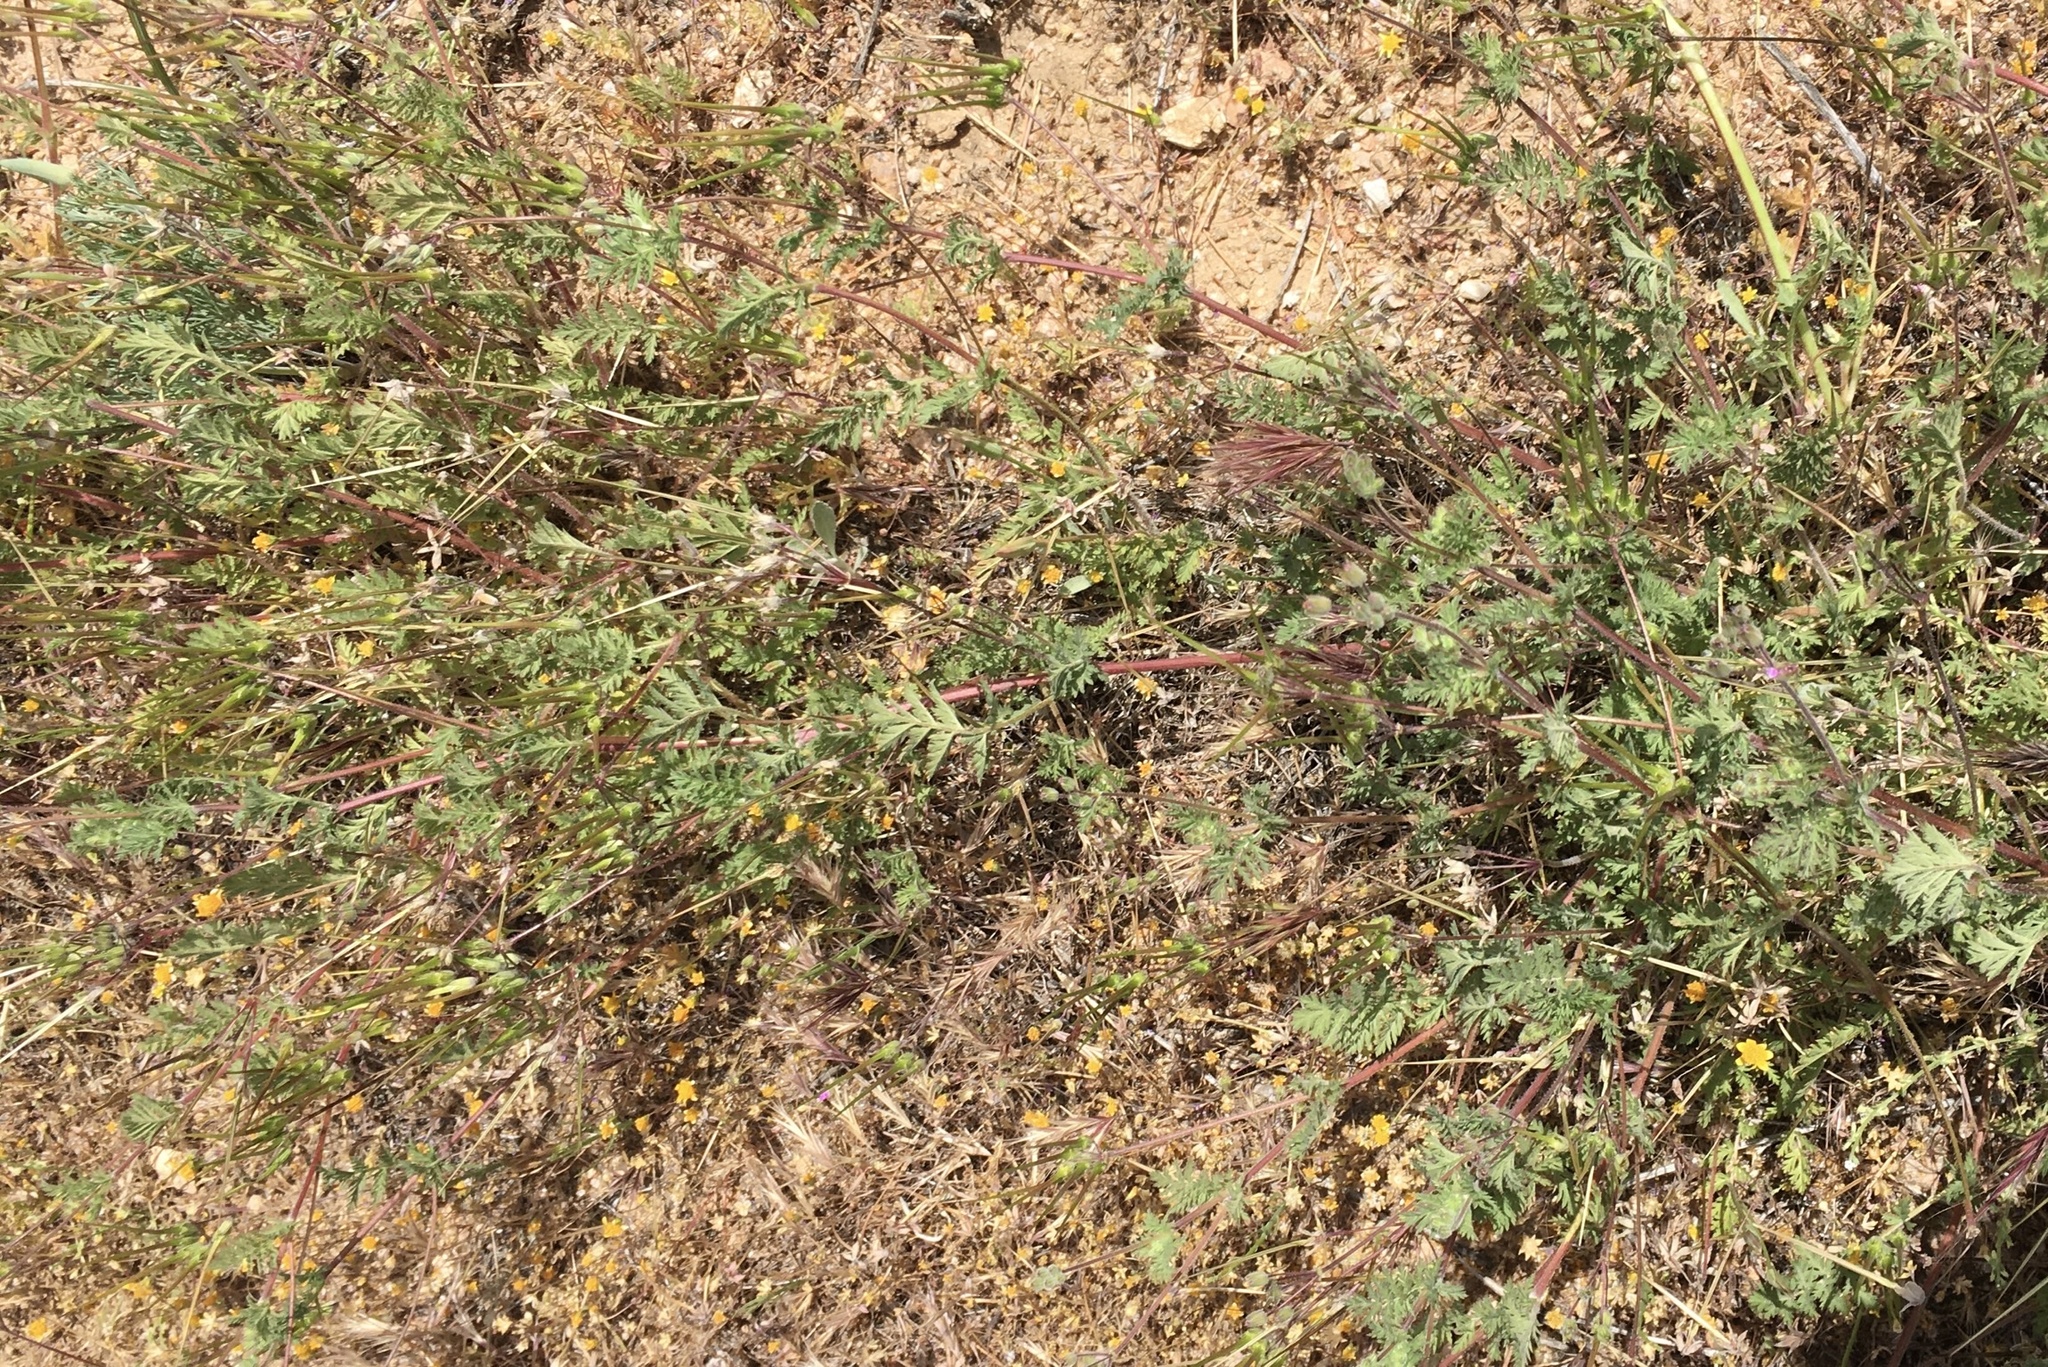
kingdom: Plantae
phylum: Tracheophyta
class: Magnoliopsida
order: Geraniales
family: Geraniaceae
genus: Erodium
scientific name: Erodium cicutarium
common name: Common stork's-bill
